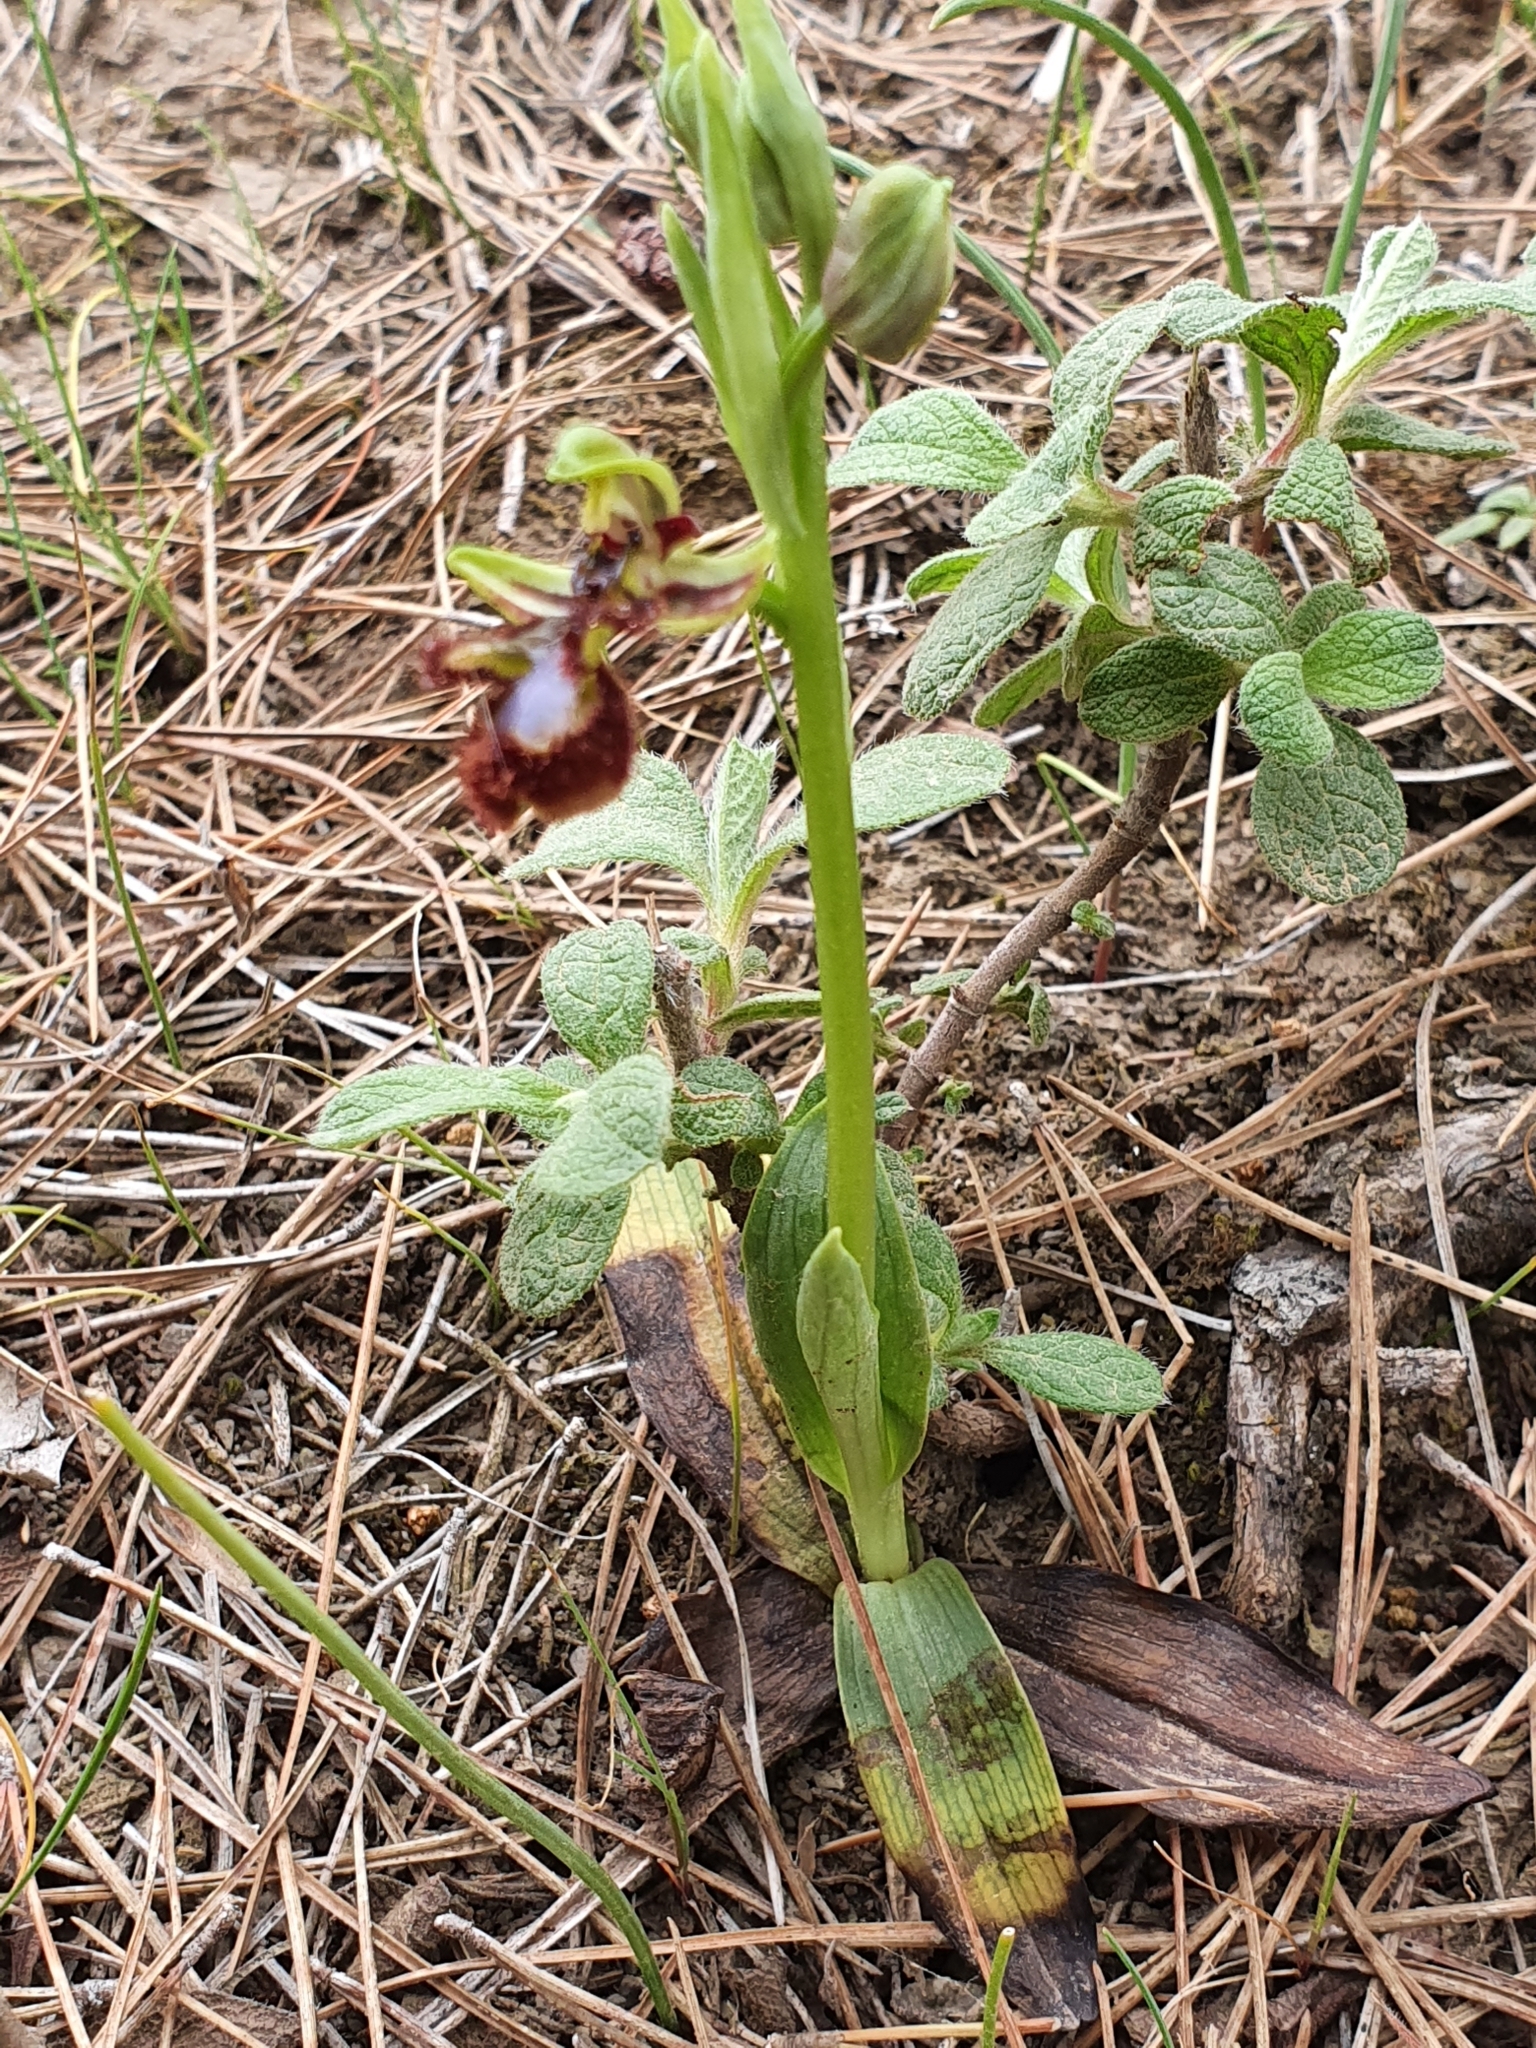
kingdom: Plantae
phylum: Tracheophyta
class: Liliopsida
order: Asparagales
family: Orchidaceae
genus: Ophrys
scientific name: Ophrys speculum
